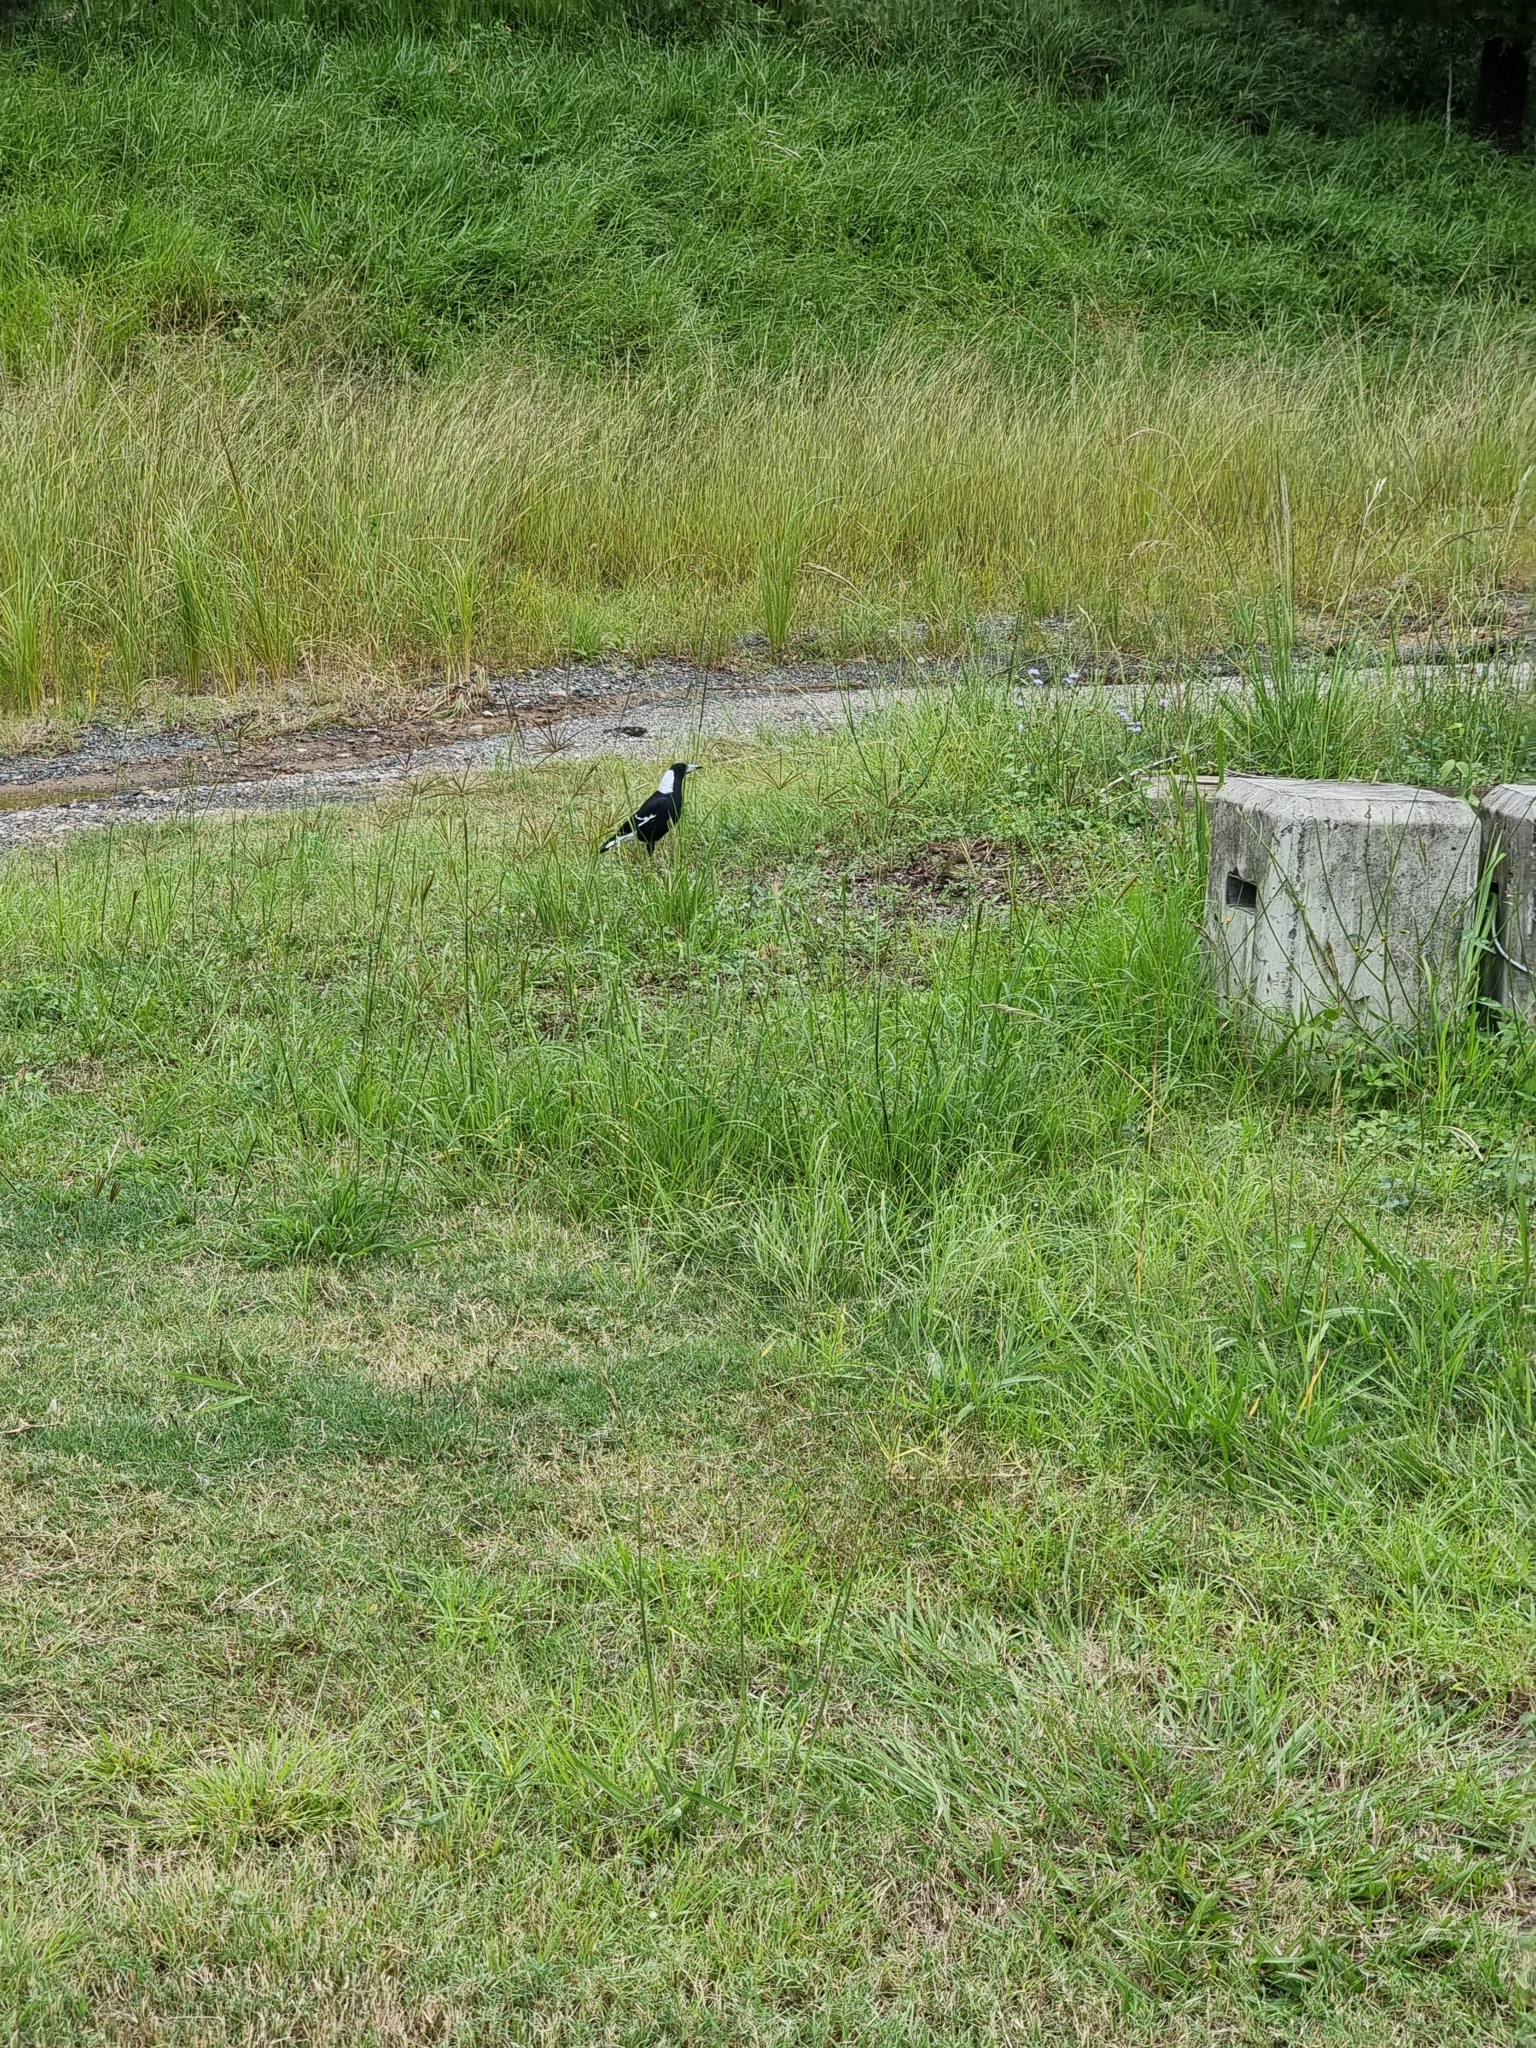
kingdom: Animalia
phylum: Chordata
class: Aves
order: Passeriformes
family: Cracticidae
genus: Gymnorhina
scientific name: Gymnorhina tibicen
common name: Australian magpie
